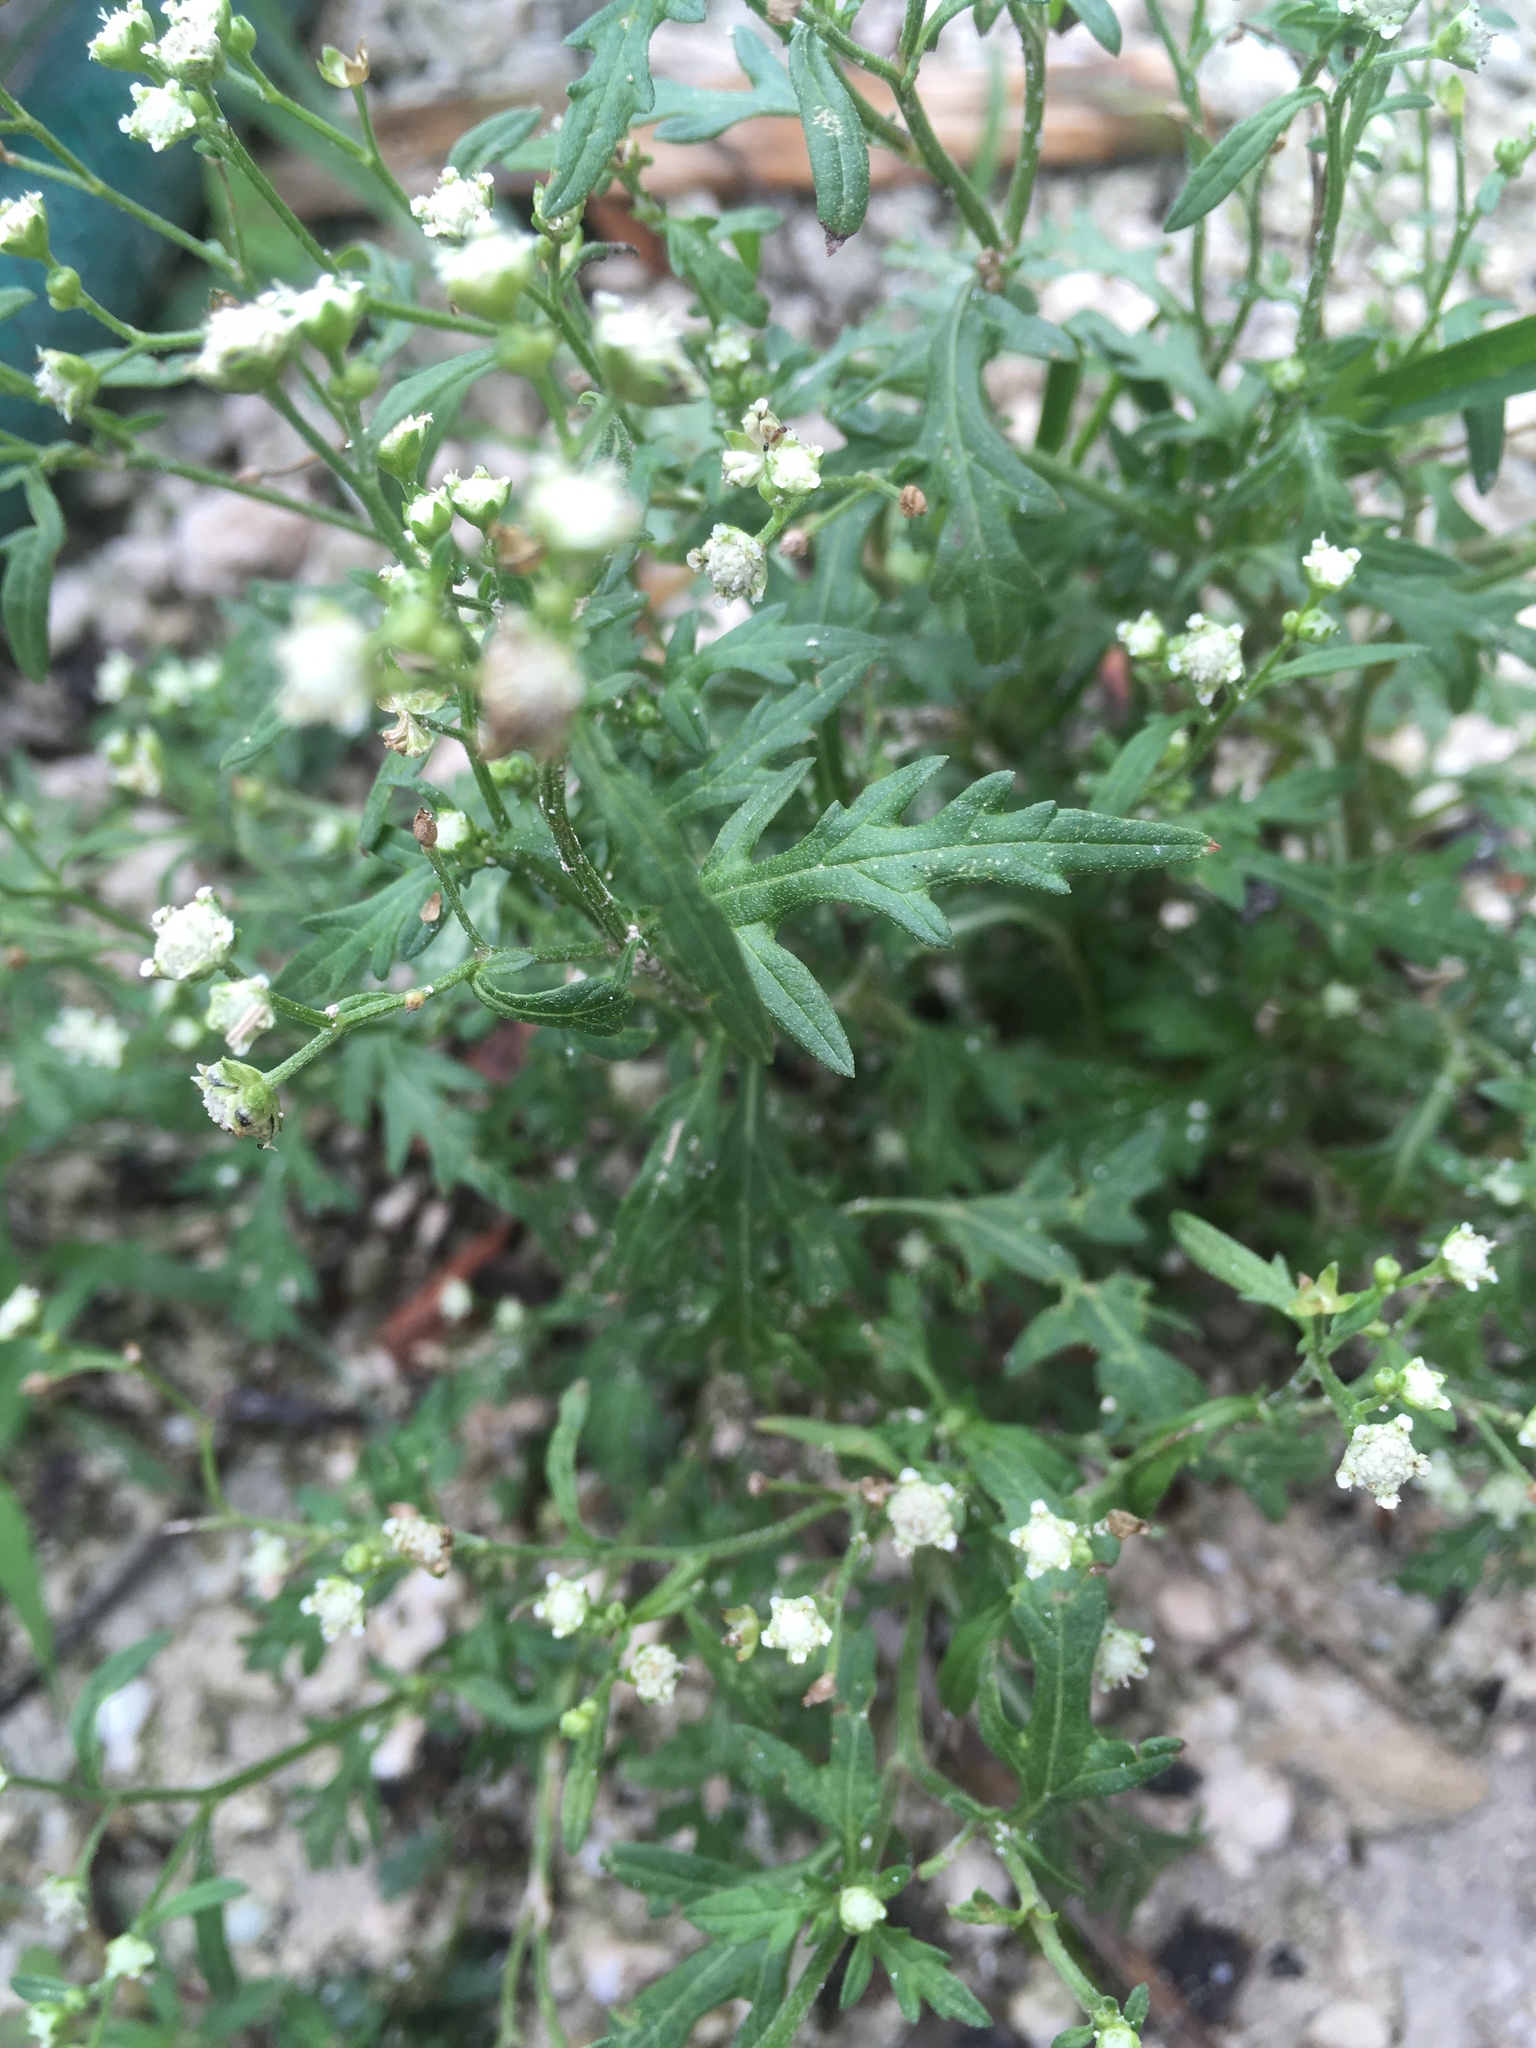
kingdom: Plantae
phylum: Tracheophyta
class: Magnoliopsida
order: Asterales
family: Asteraceae
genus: Parthenium
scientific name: Parthenium hysterophorus
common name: Santa maria feverfew
